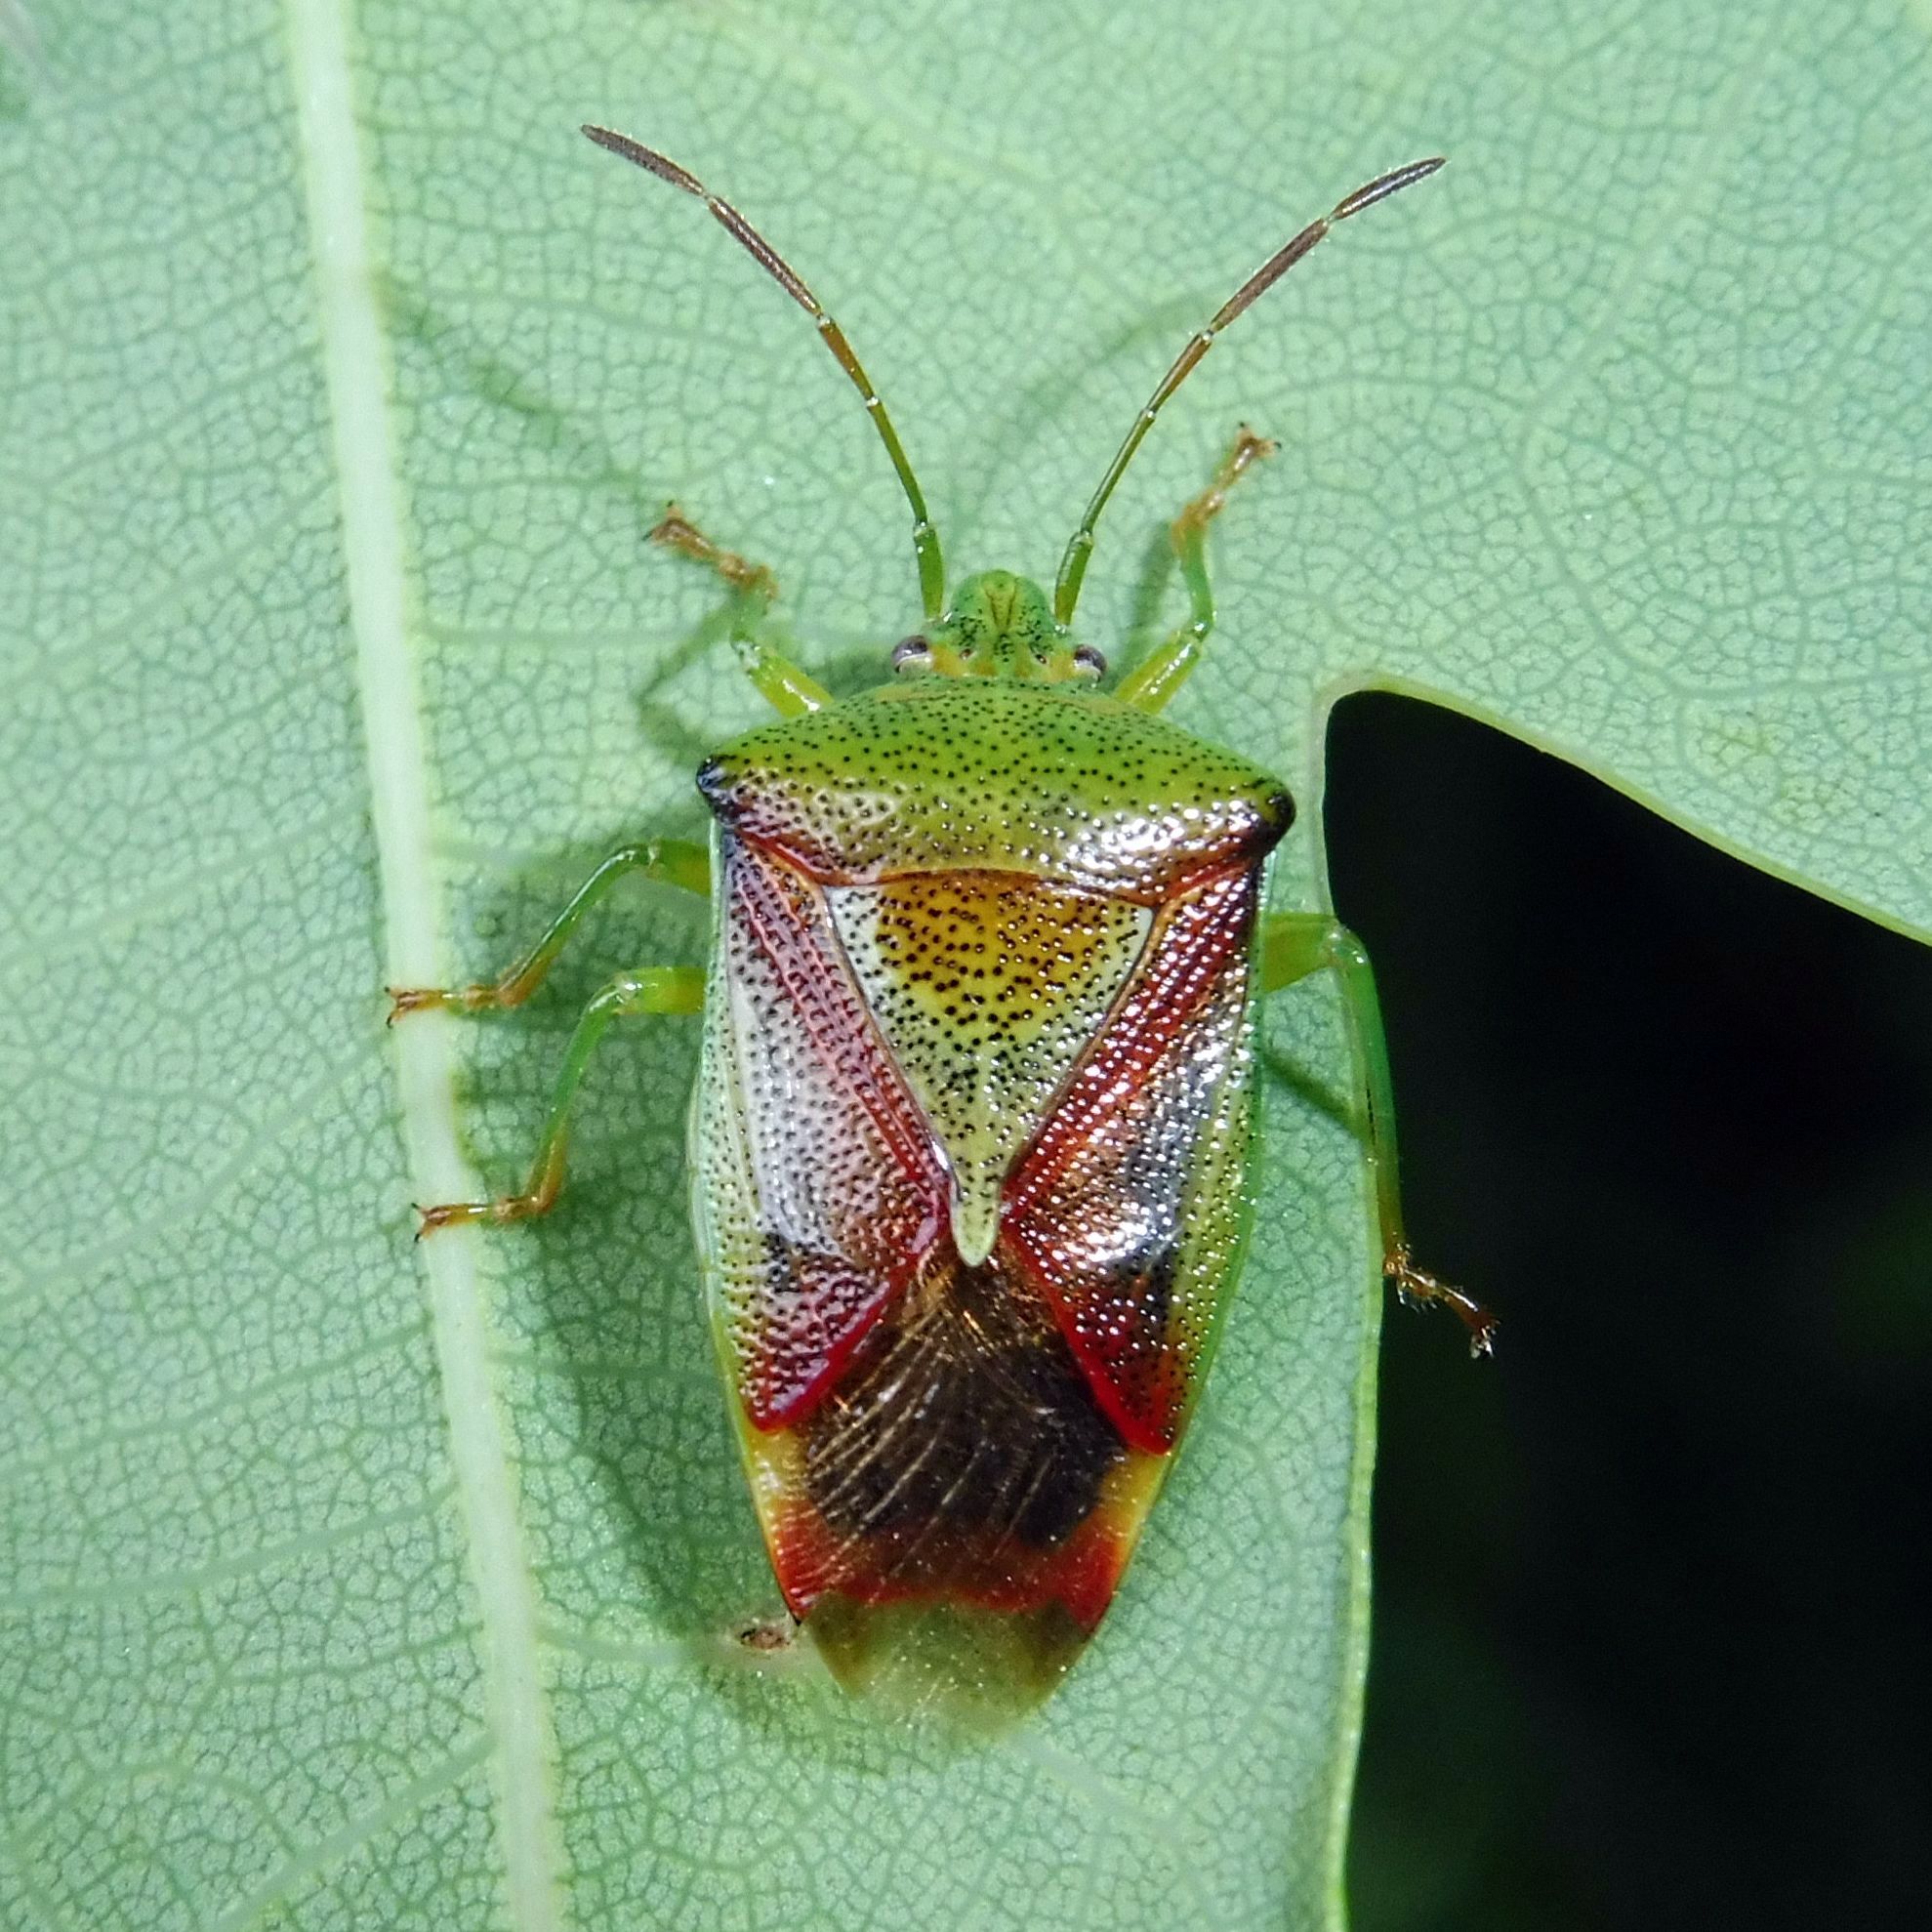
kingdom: Animalia
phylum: Arthropoda
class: Insecta
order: Hemiptera
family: Acanthosomatidae
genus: Elasmostethus
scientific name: Elasmostethus interstinctus
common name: Birch shieldbug
